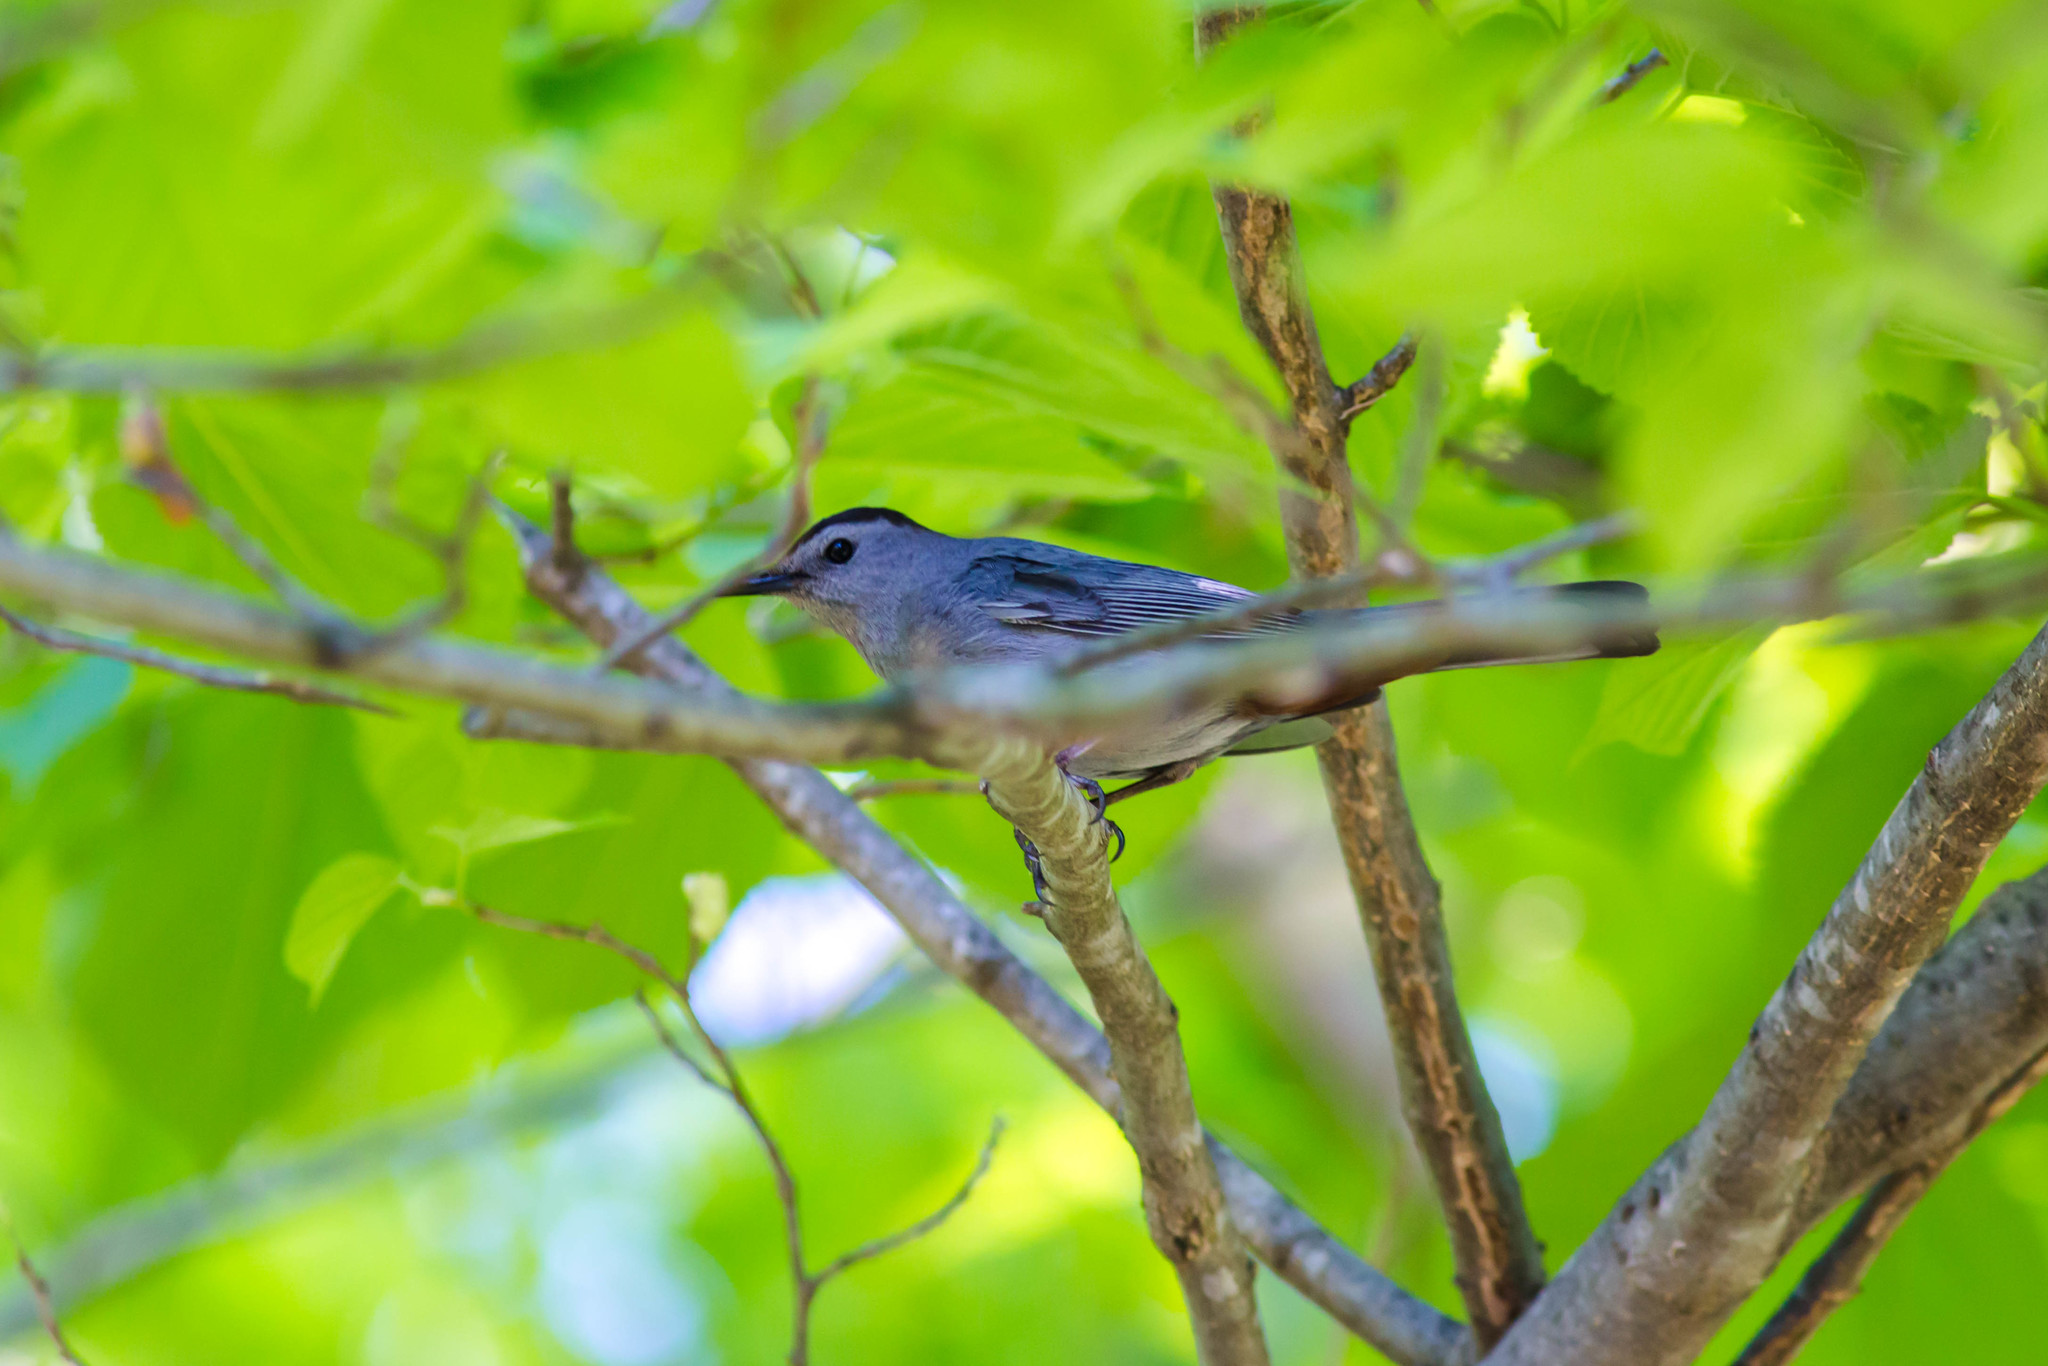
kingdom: Animalia
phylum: Chordata
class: Aves
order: Passeriformes
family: Mimidae
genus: Dumetella
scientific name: Dumetella carolinensis
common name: Gray catbird
